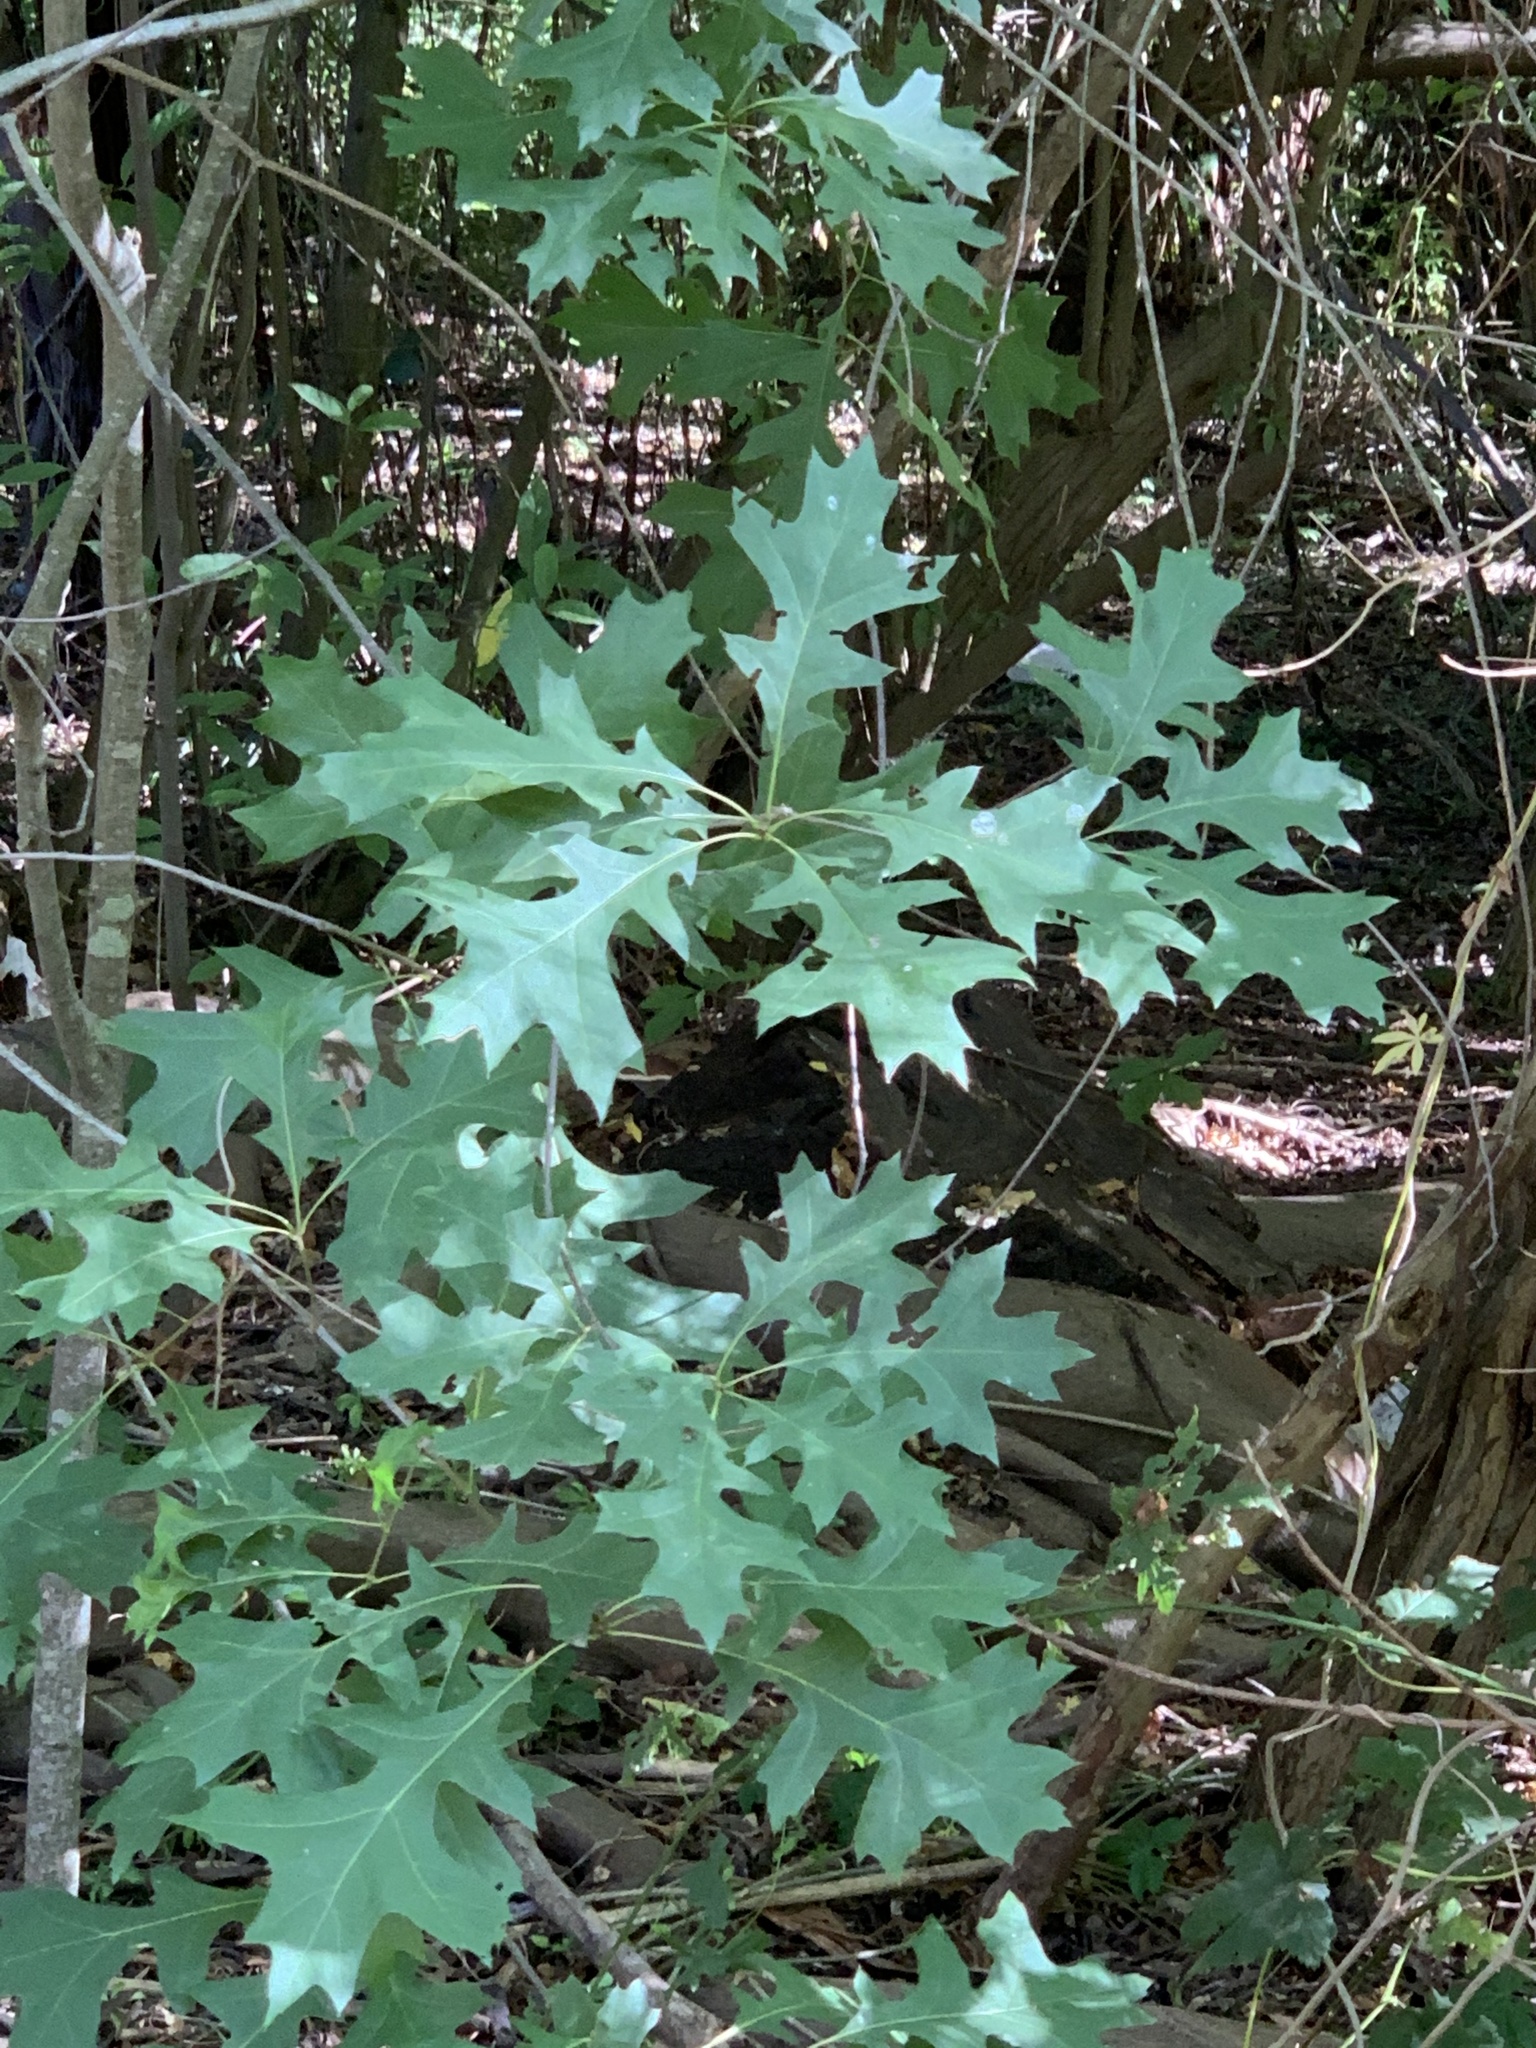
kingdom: Plantae
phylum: Tracheophyta
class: Magnoliopsida
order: Fagales
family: Fagaceae
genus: Quercus
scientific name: Quercus palustris
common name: Pin oak
